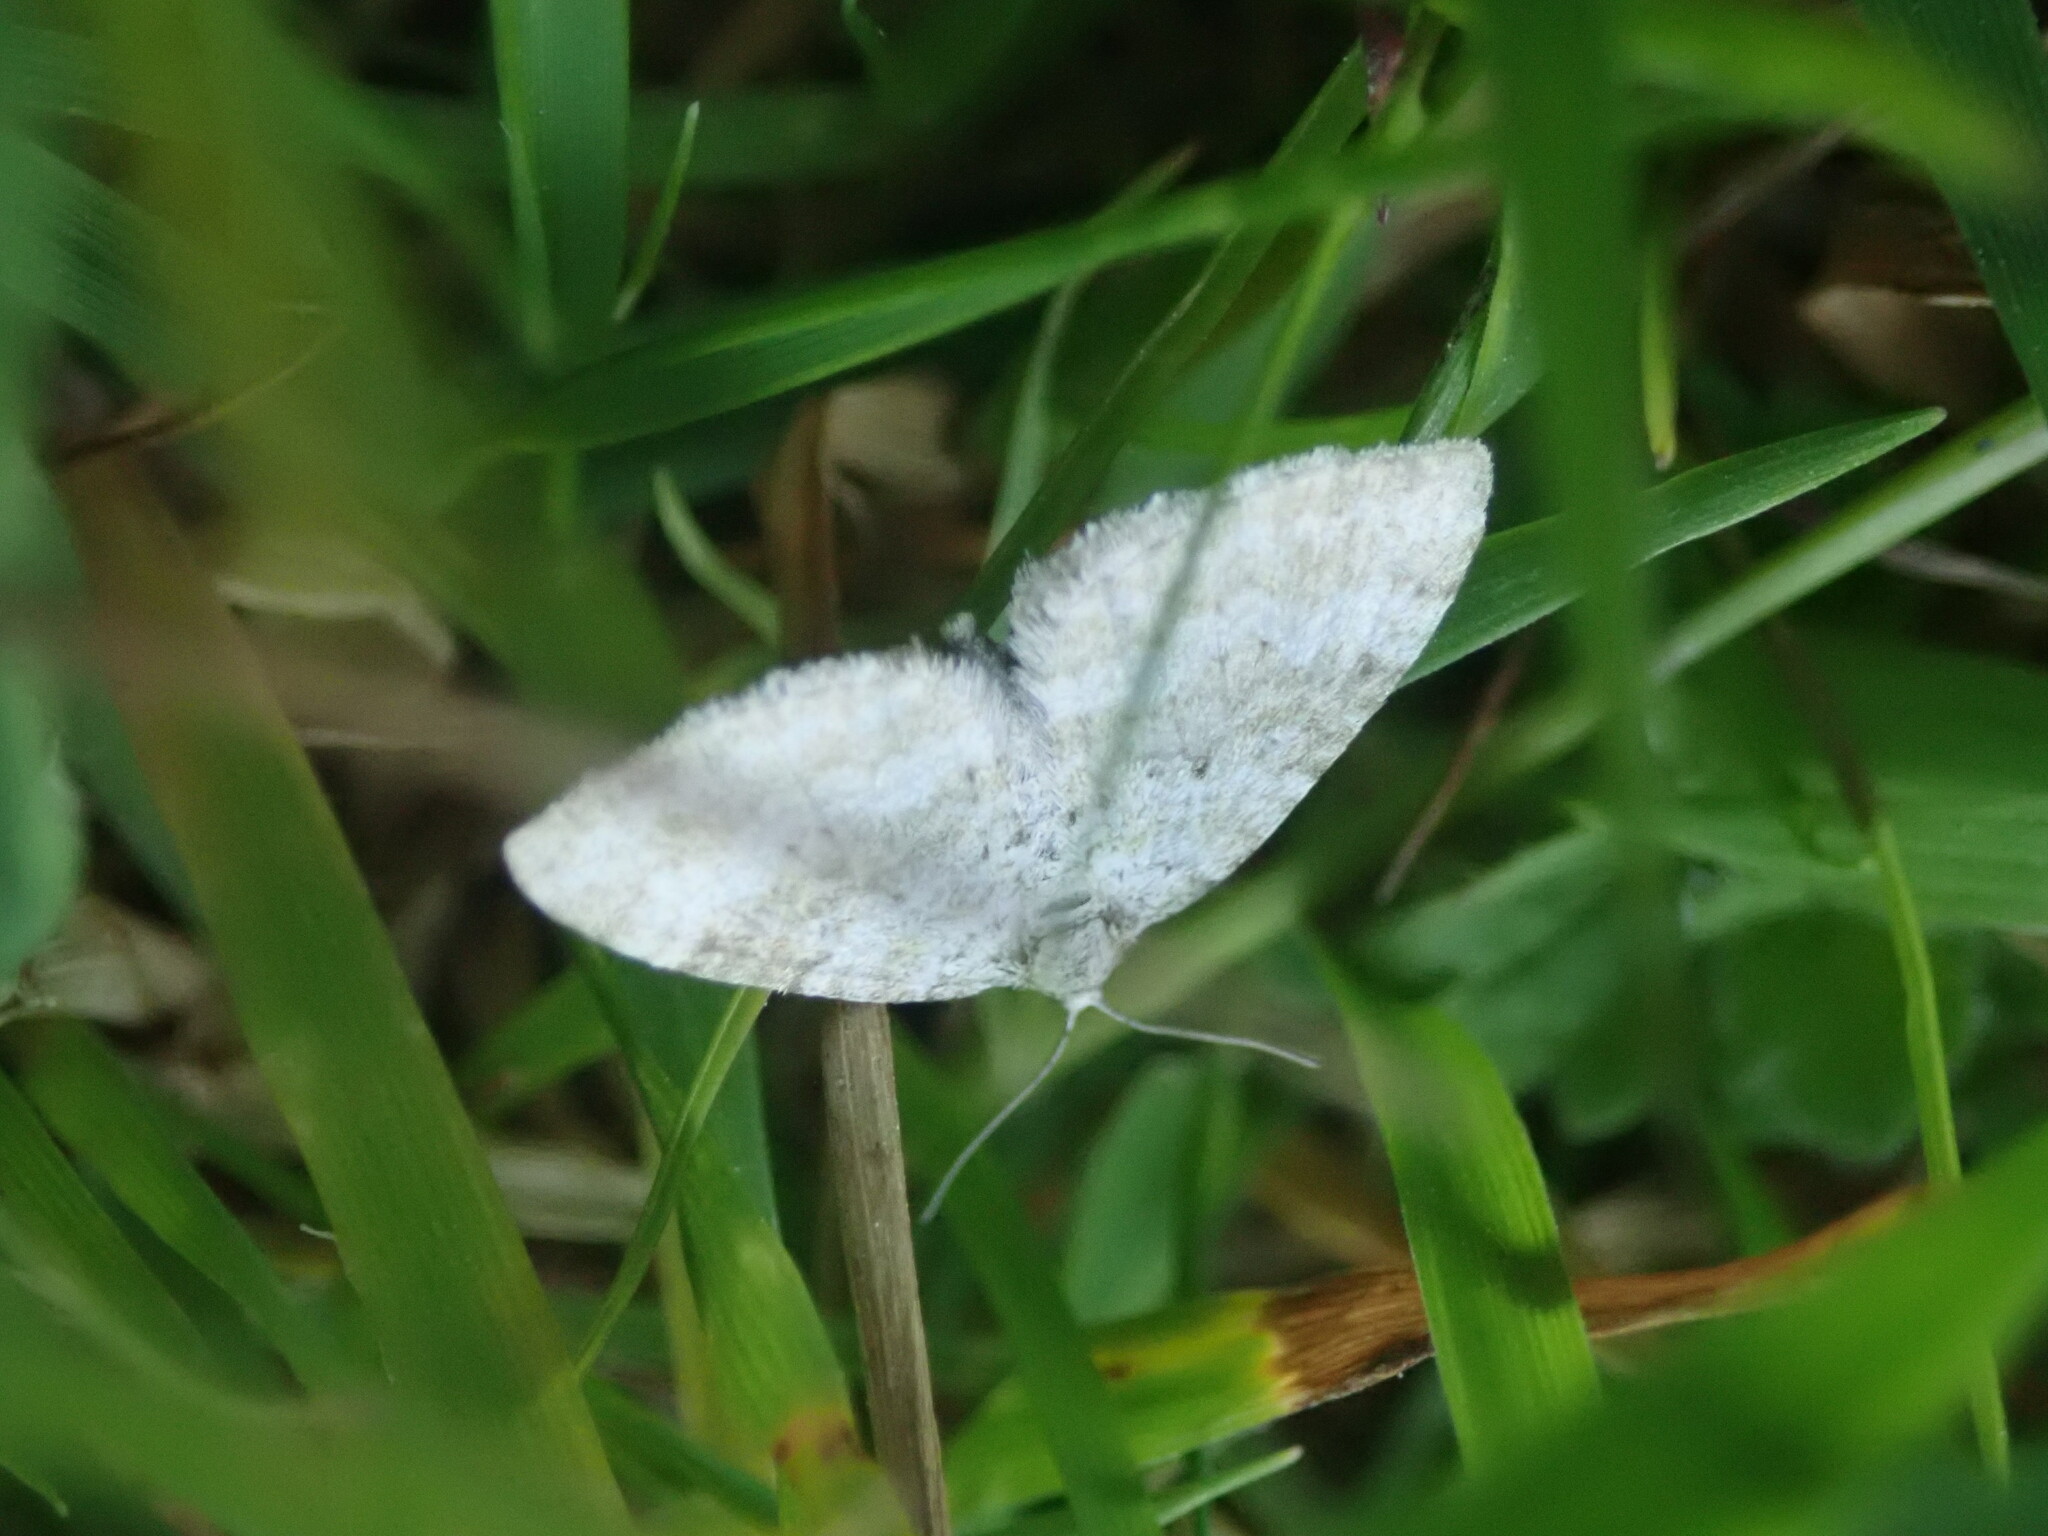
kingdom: Animalia
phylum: Arthropoda
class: Insecta
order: Lepidoptera
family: Geometridae
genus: Perizoma
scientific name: Perizoma albulata
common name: Grass rivulet
